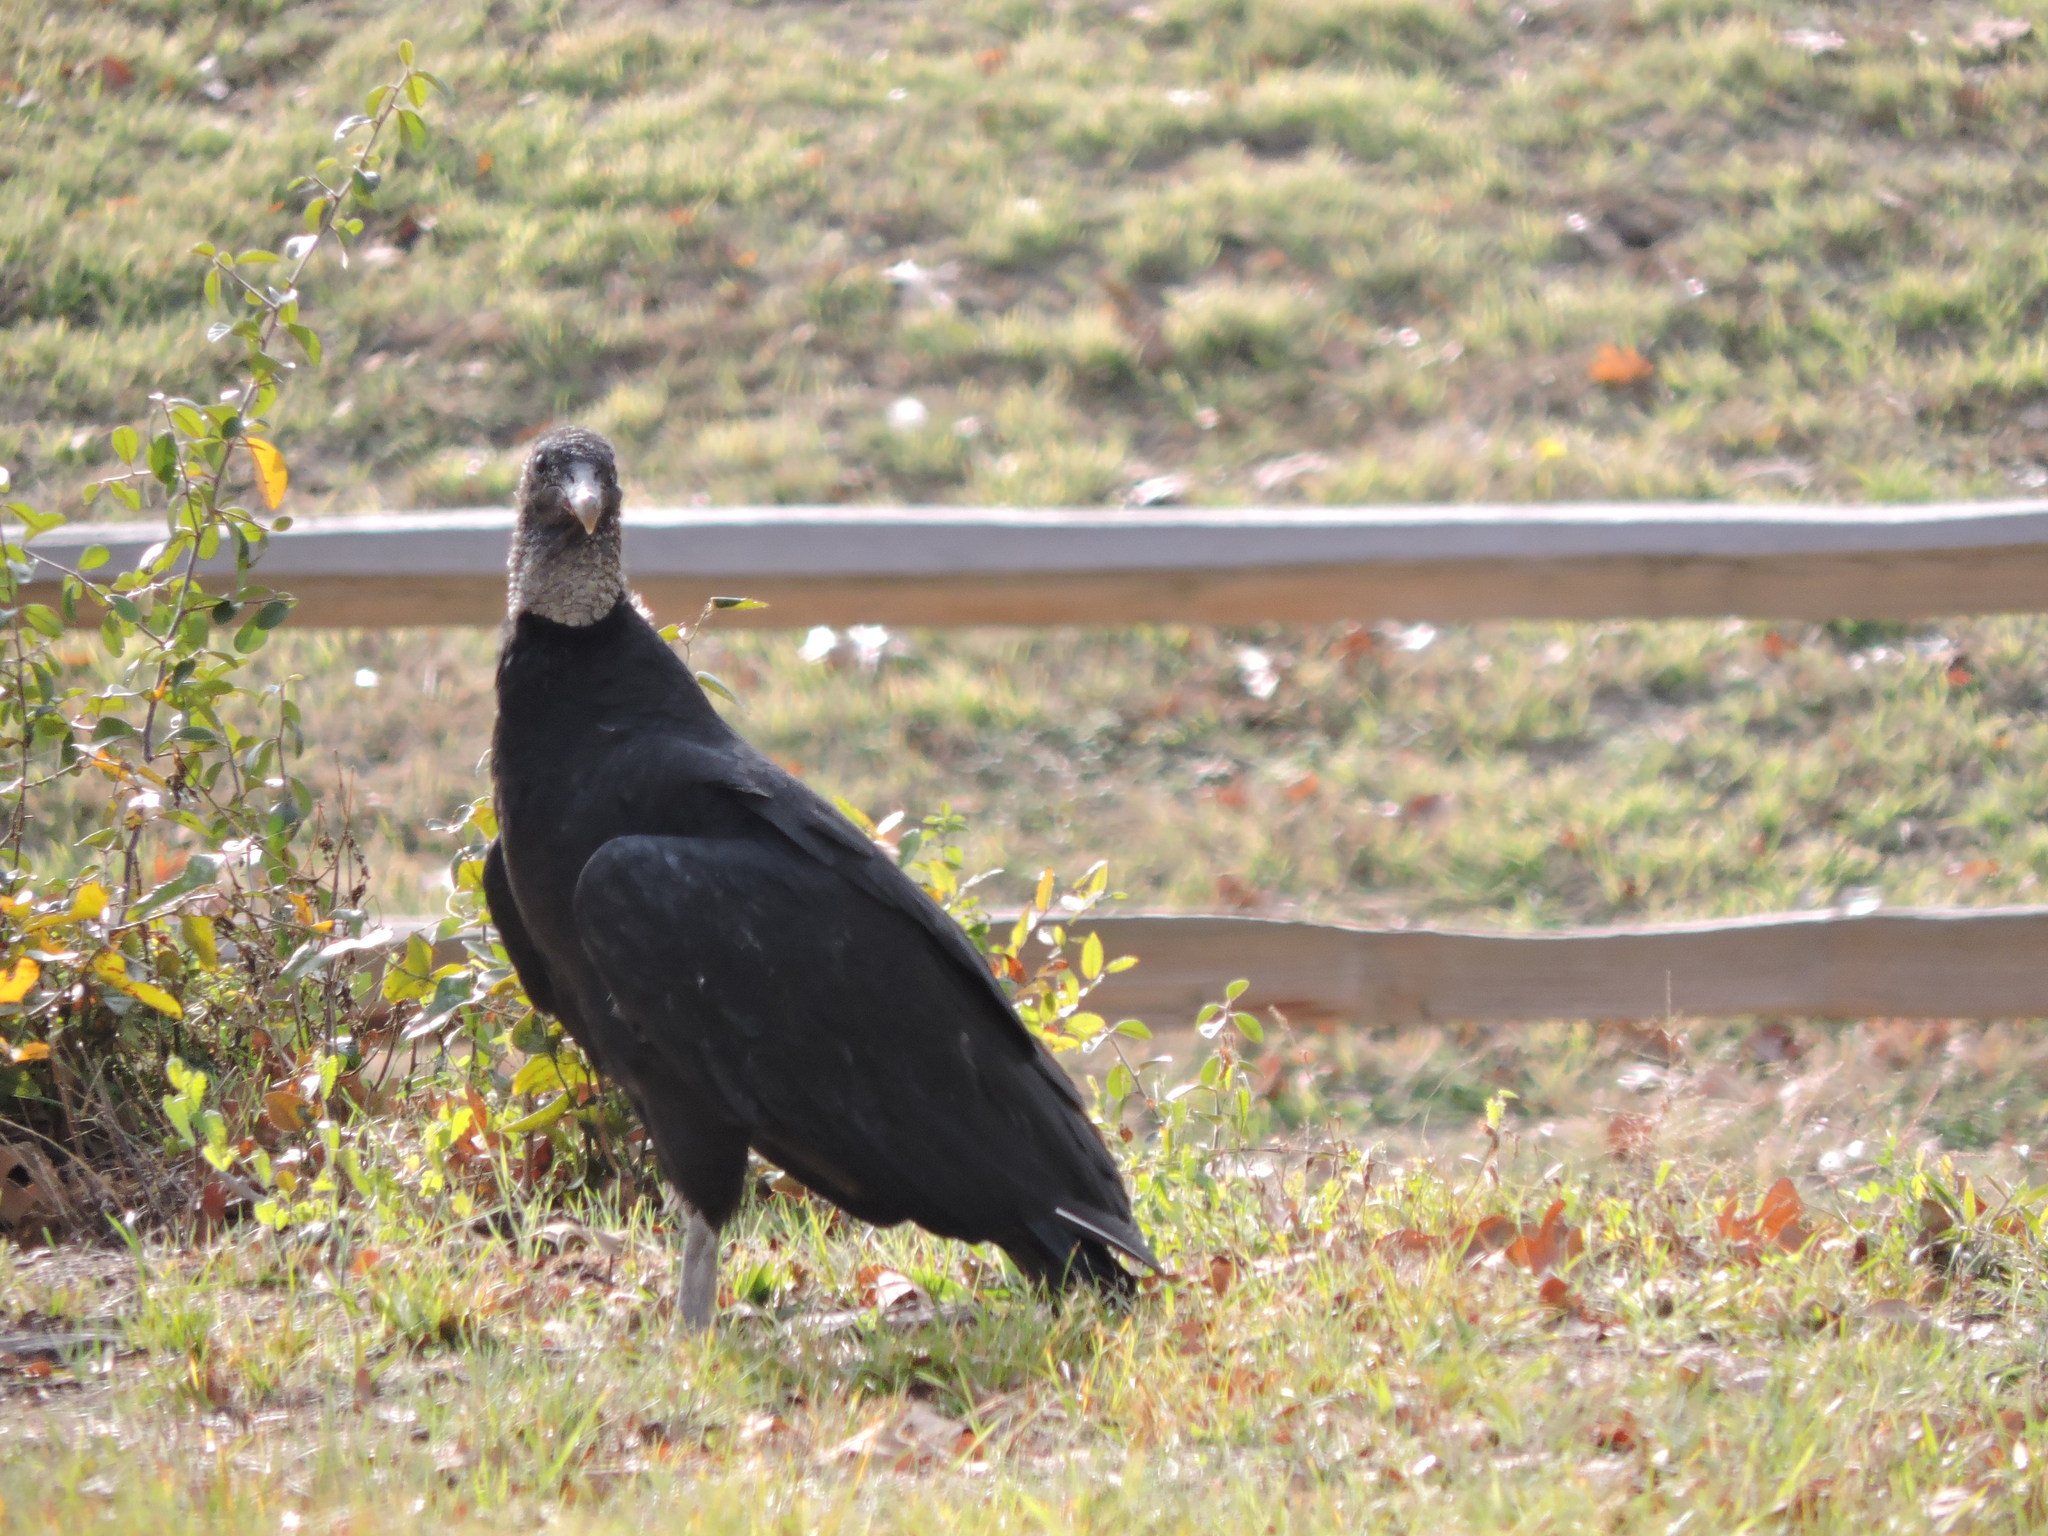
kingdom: Animalia
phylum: Chordata
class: Aves
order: Accipitriformes
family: Cathartidae
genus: Coragyps
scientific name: Coragyps atratus
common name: Black vulture
